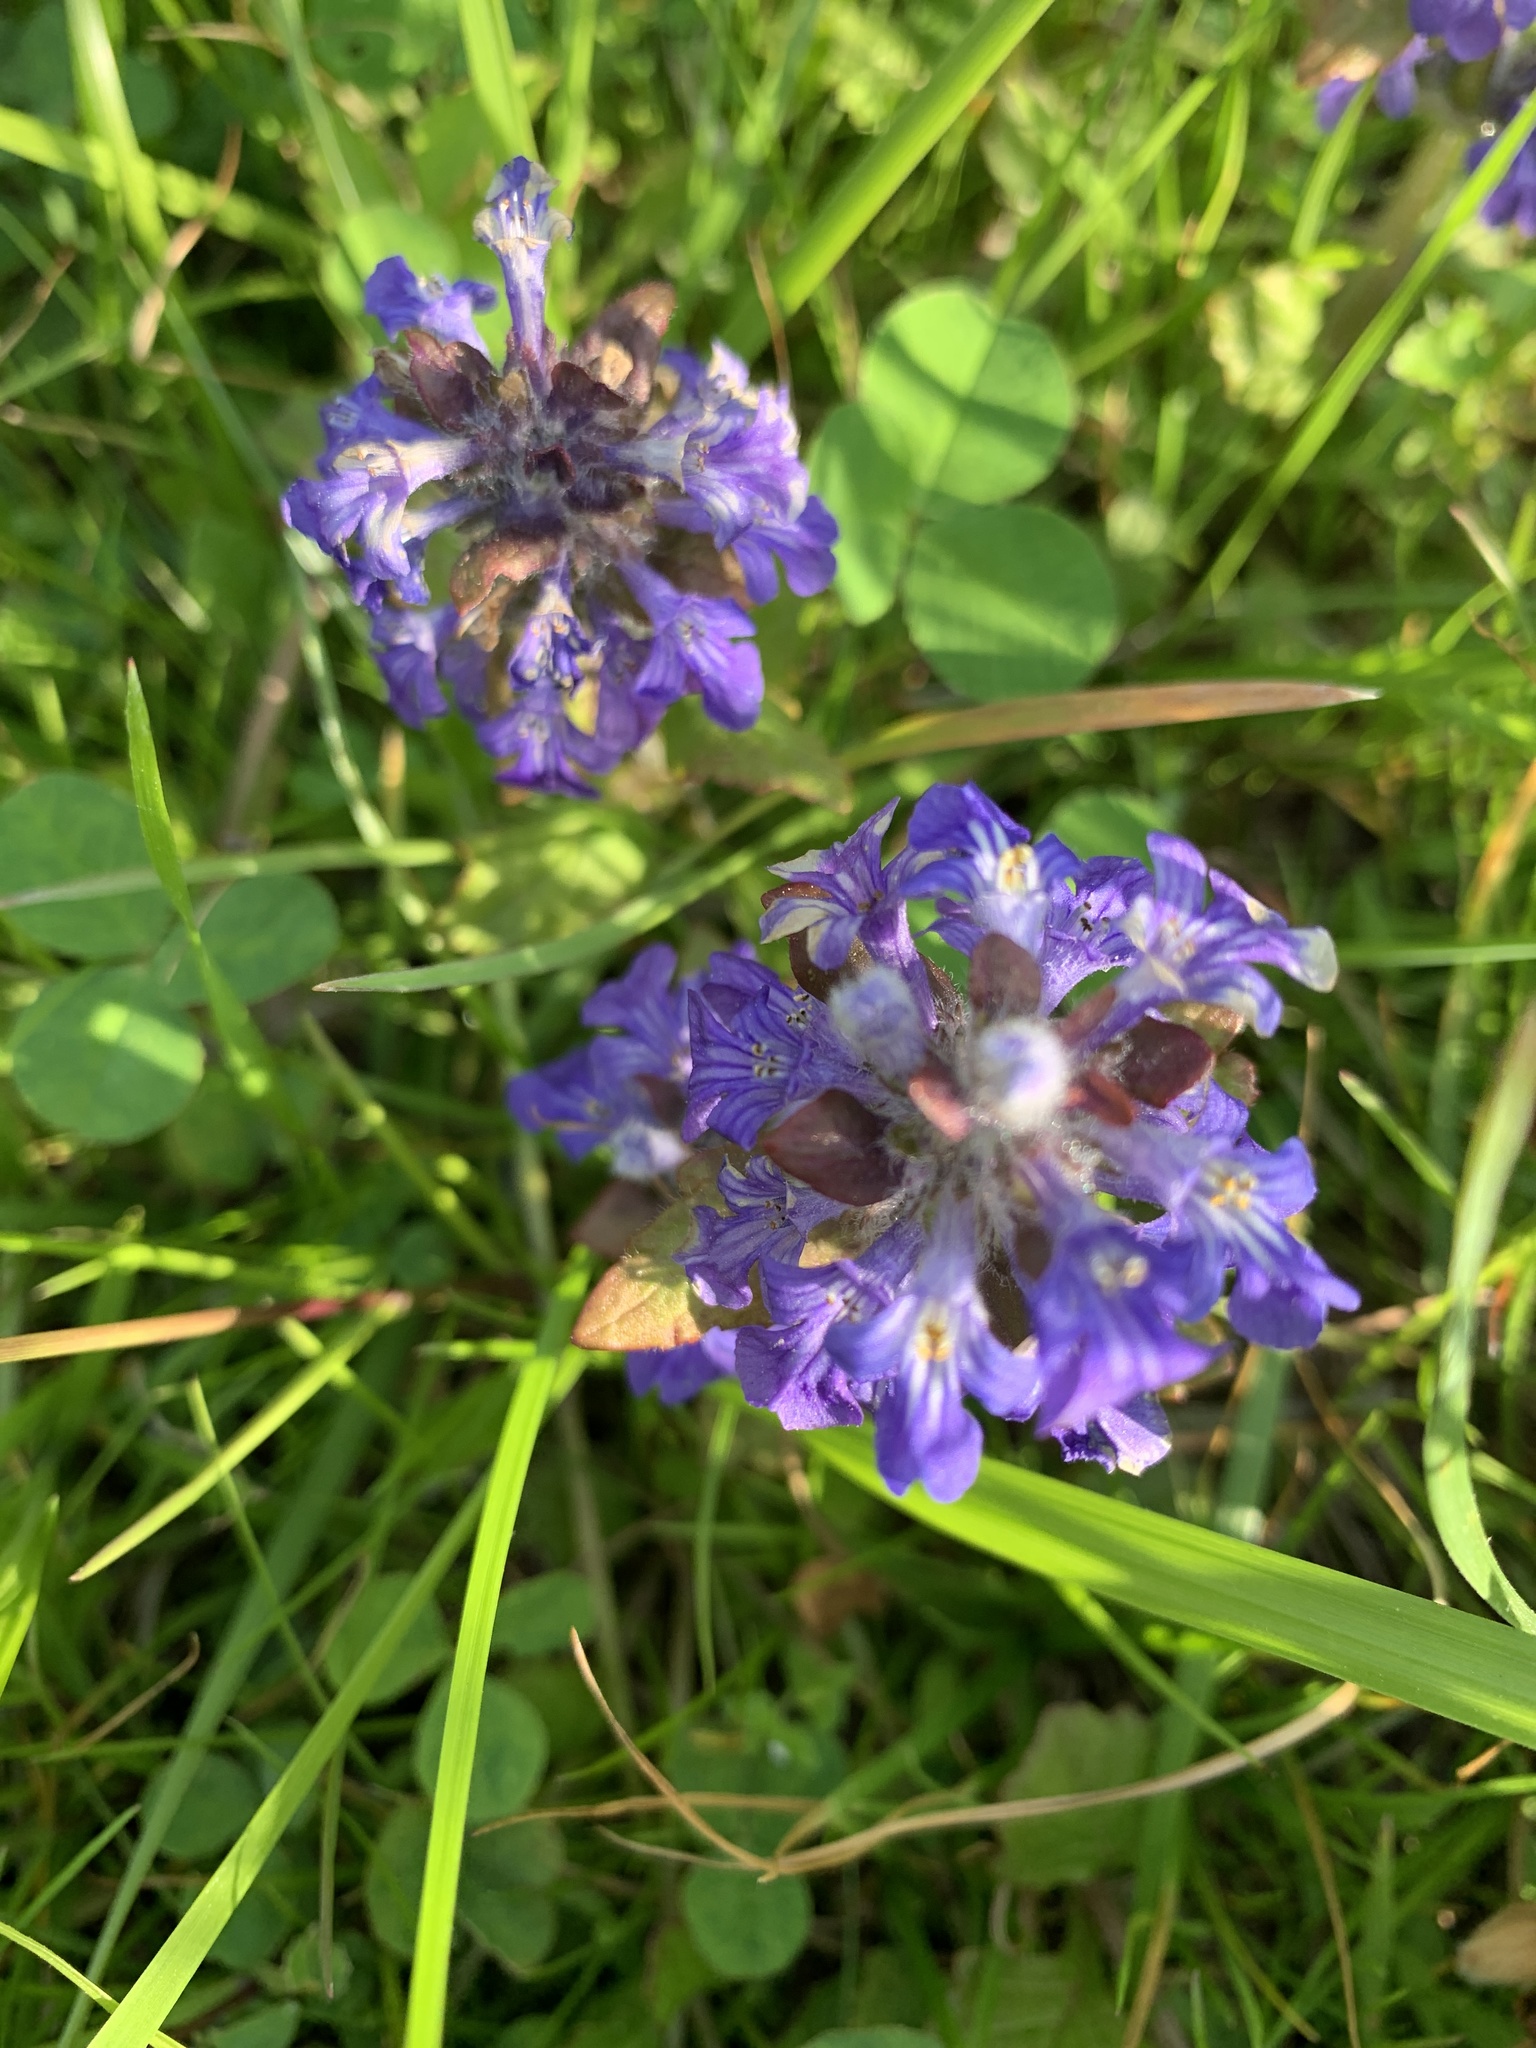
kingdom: Plantae
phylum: Tracheophyta
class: Magnoliopsida
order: Lamiales
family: Lamiaceae
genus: Ajuga
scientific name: Ajuga reptans
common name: Bugle
